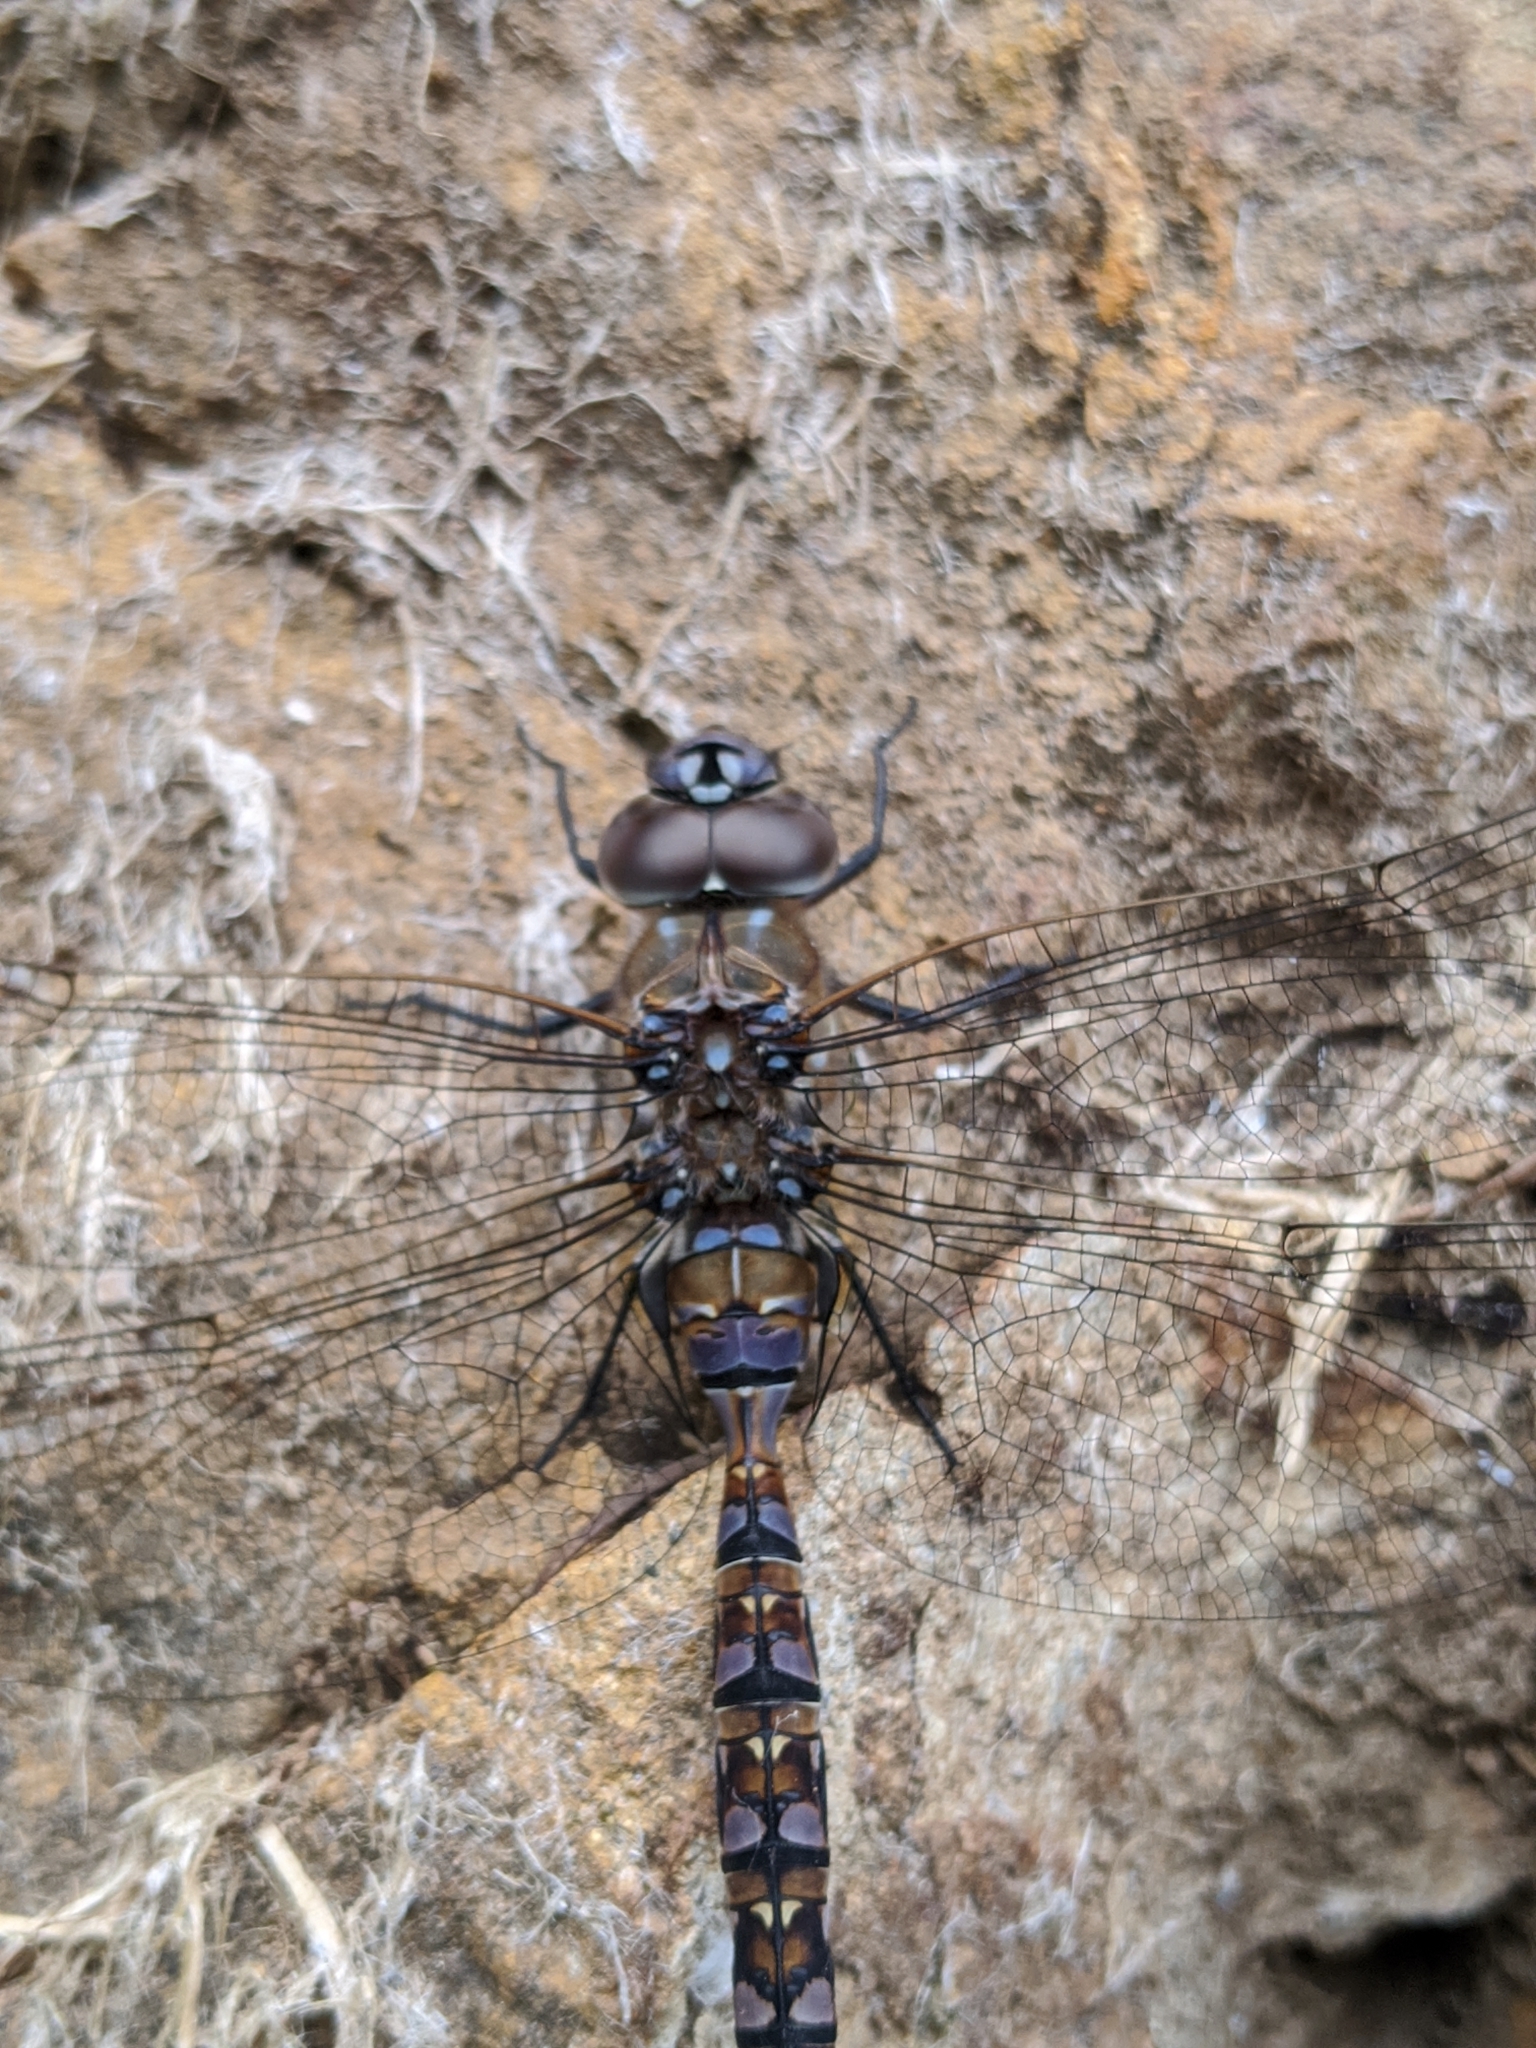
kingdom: Animalia
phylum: Arthropoda
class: Insecta
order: Odonata
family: Aeshnidae
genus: Rhionaeschna
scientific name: Rhionaeschna multicolor
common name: Blue-eyed darner
